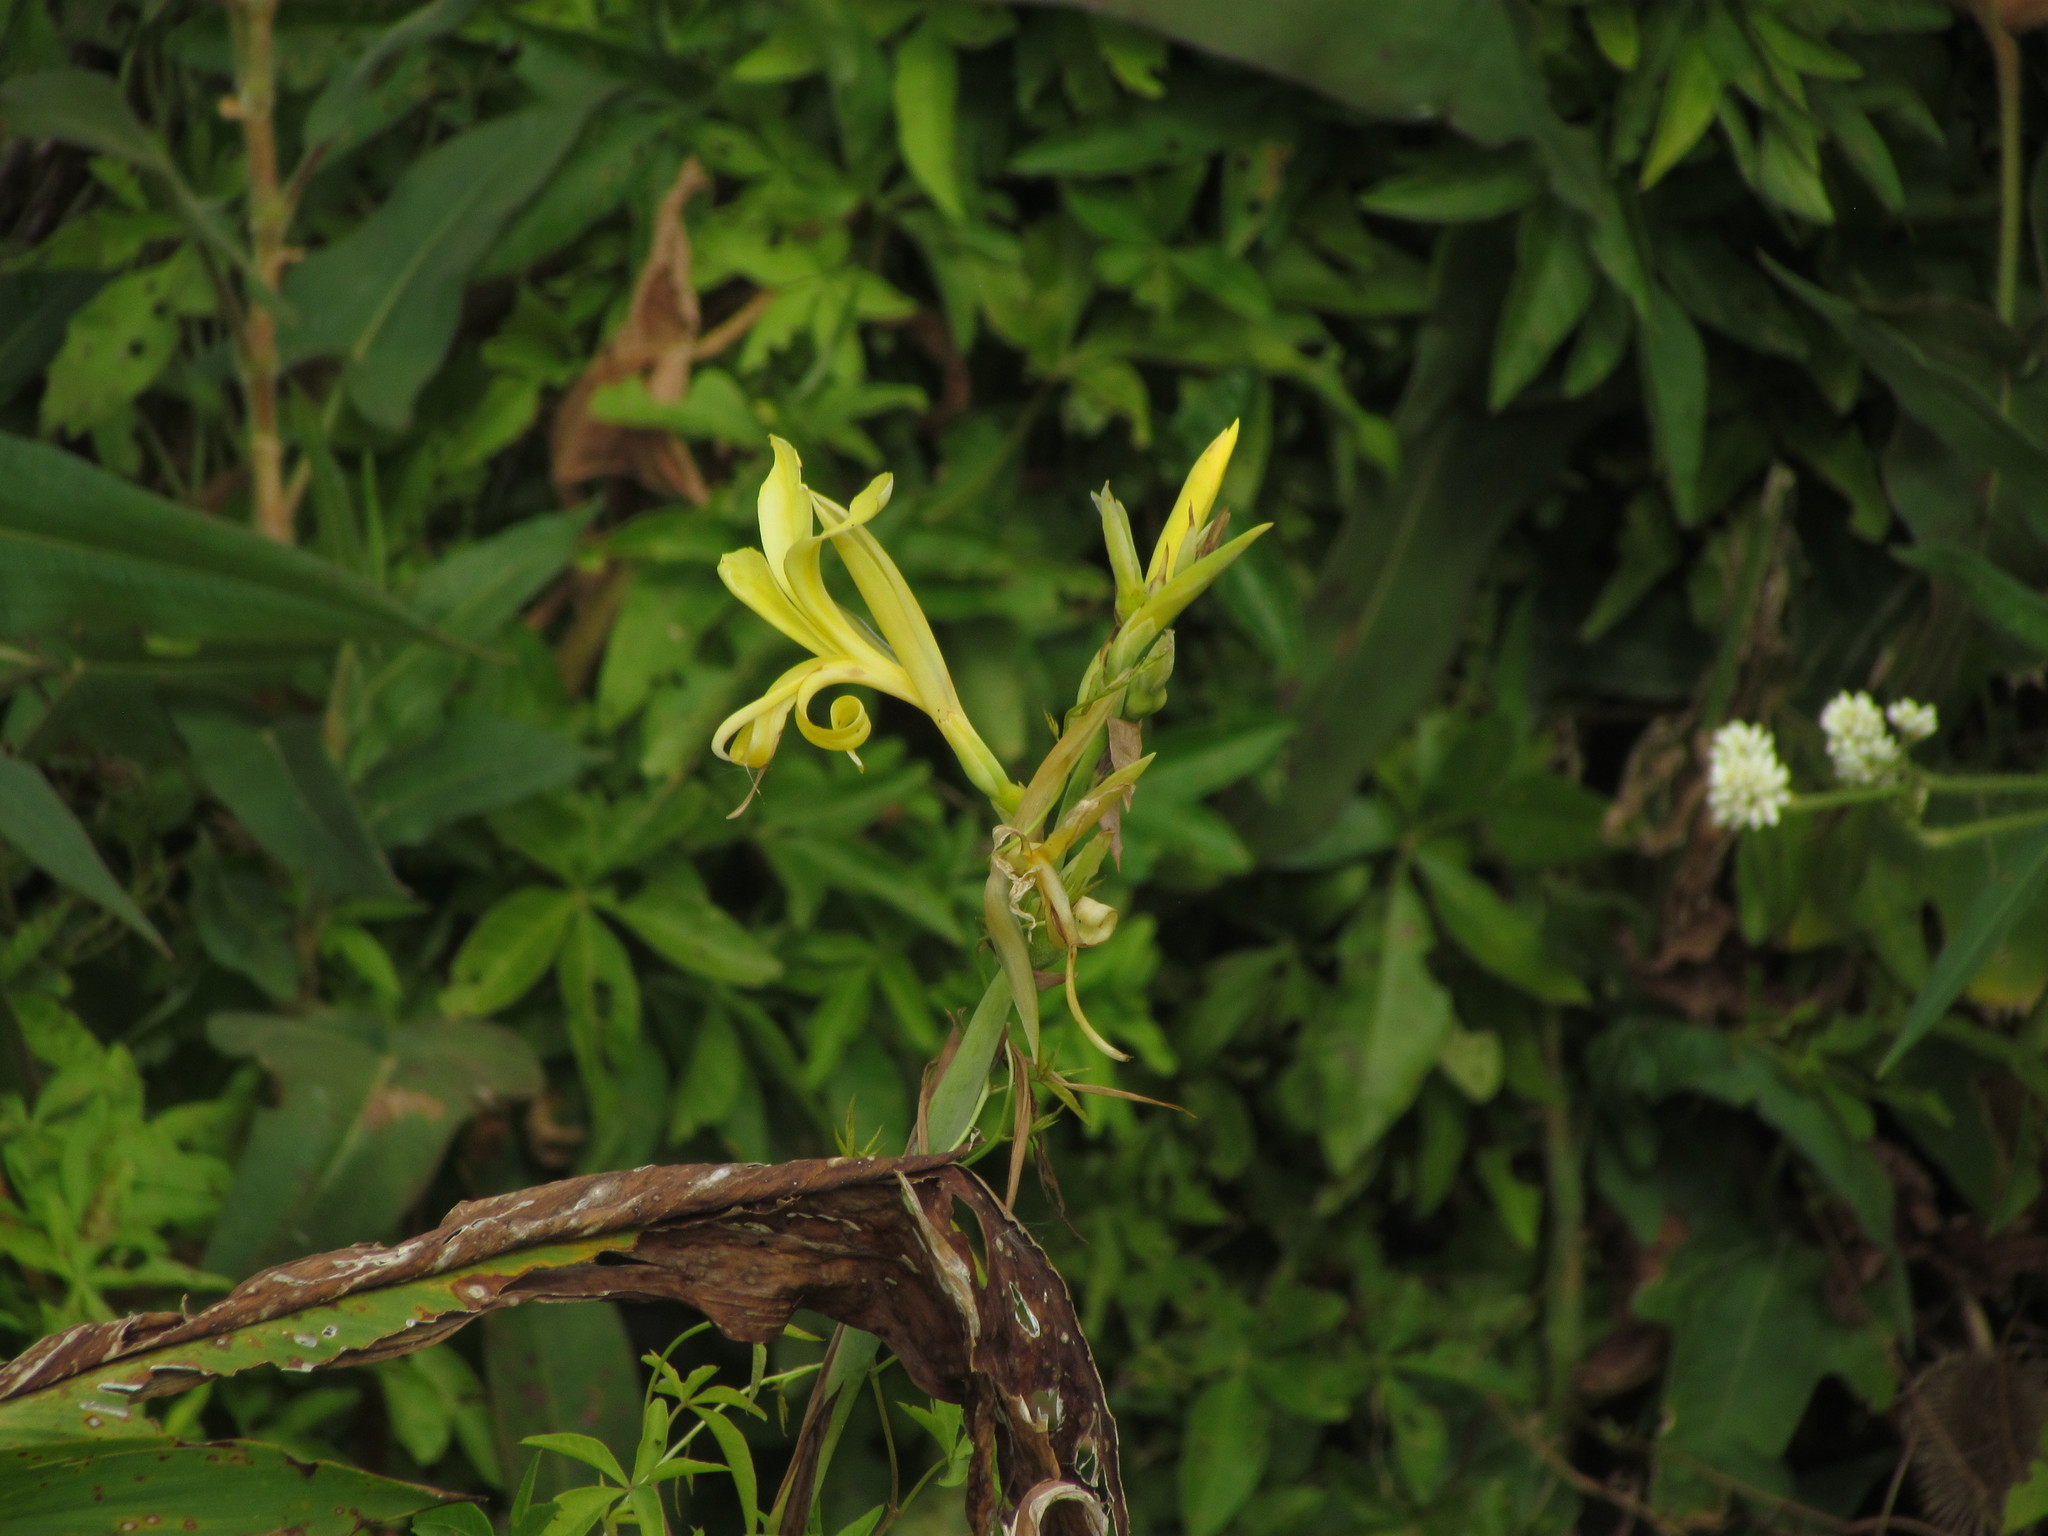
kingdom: Plantae
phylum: Tracheophyta
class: Liliopsida
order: Zingiberales
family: Cannaceae
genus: Canna
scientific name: Canna glauca
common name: Louisiana canna
